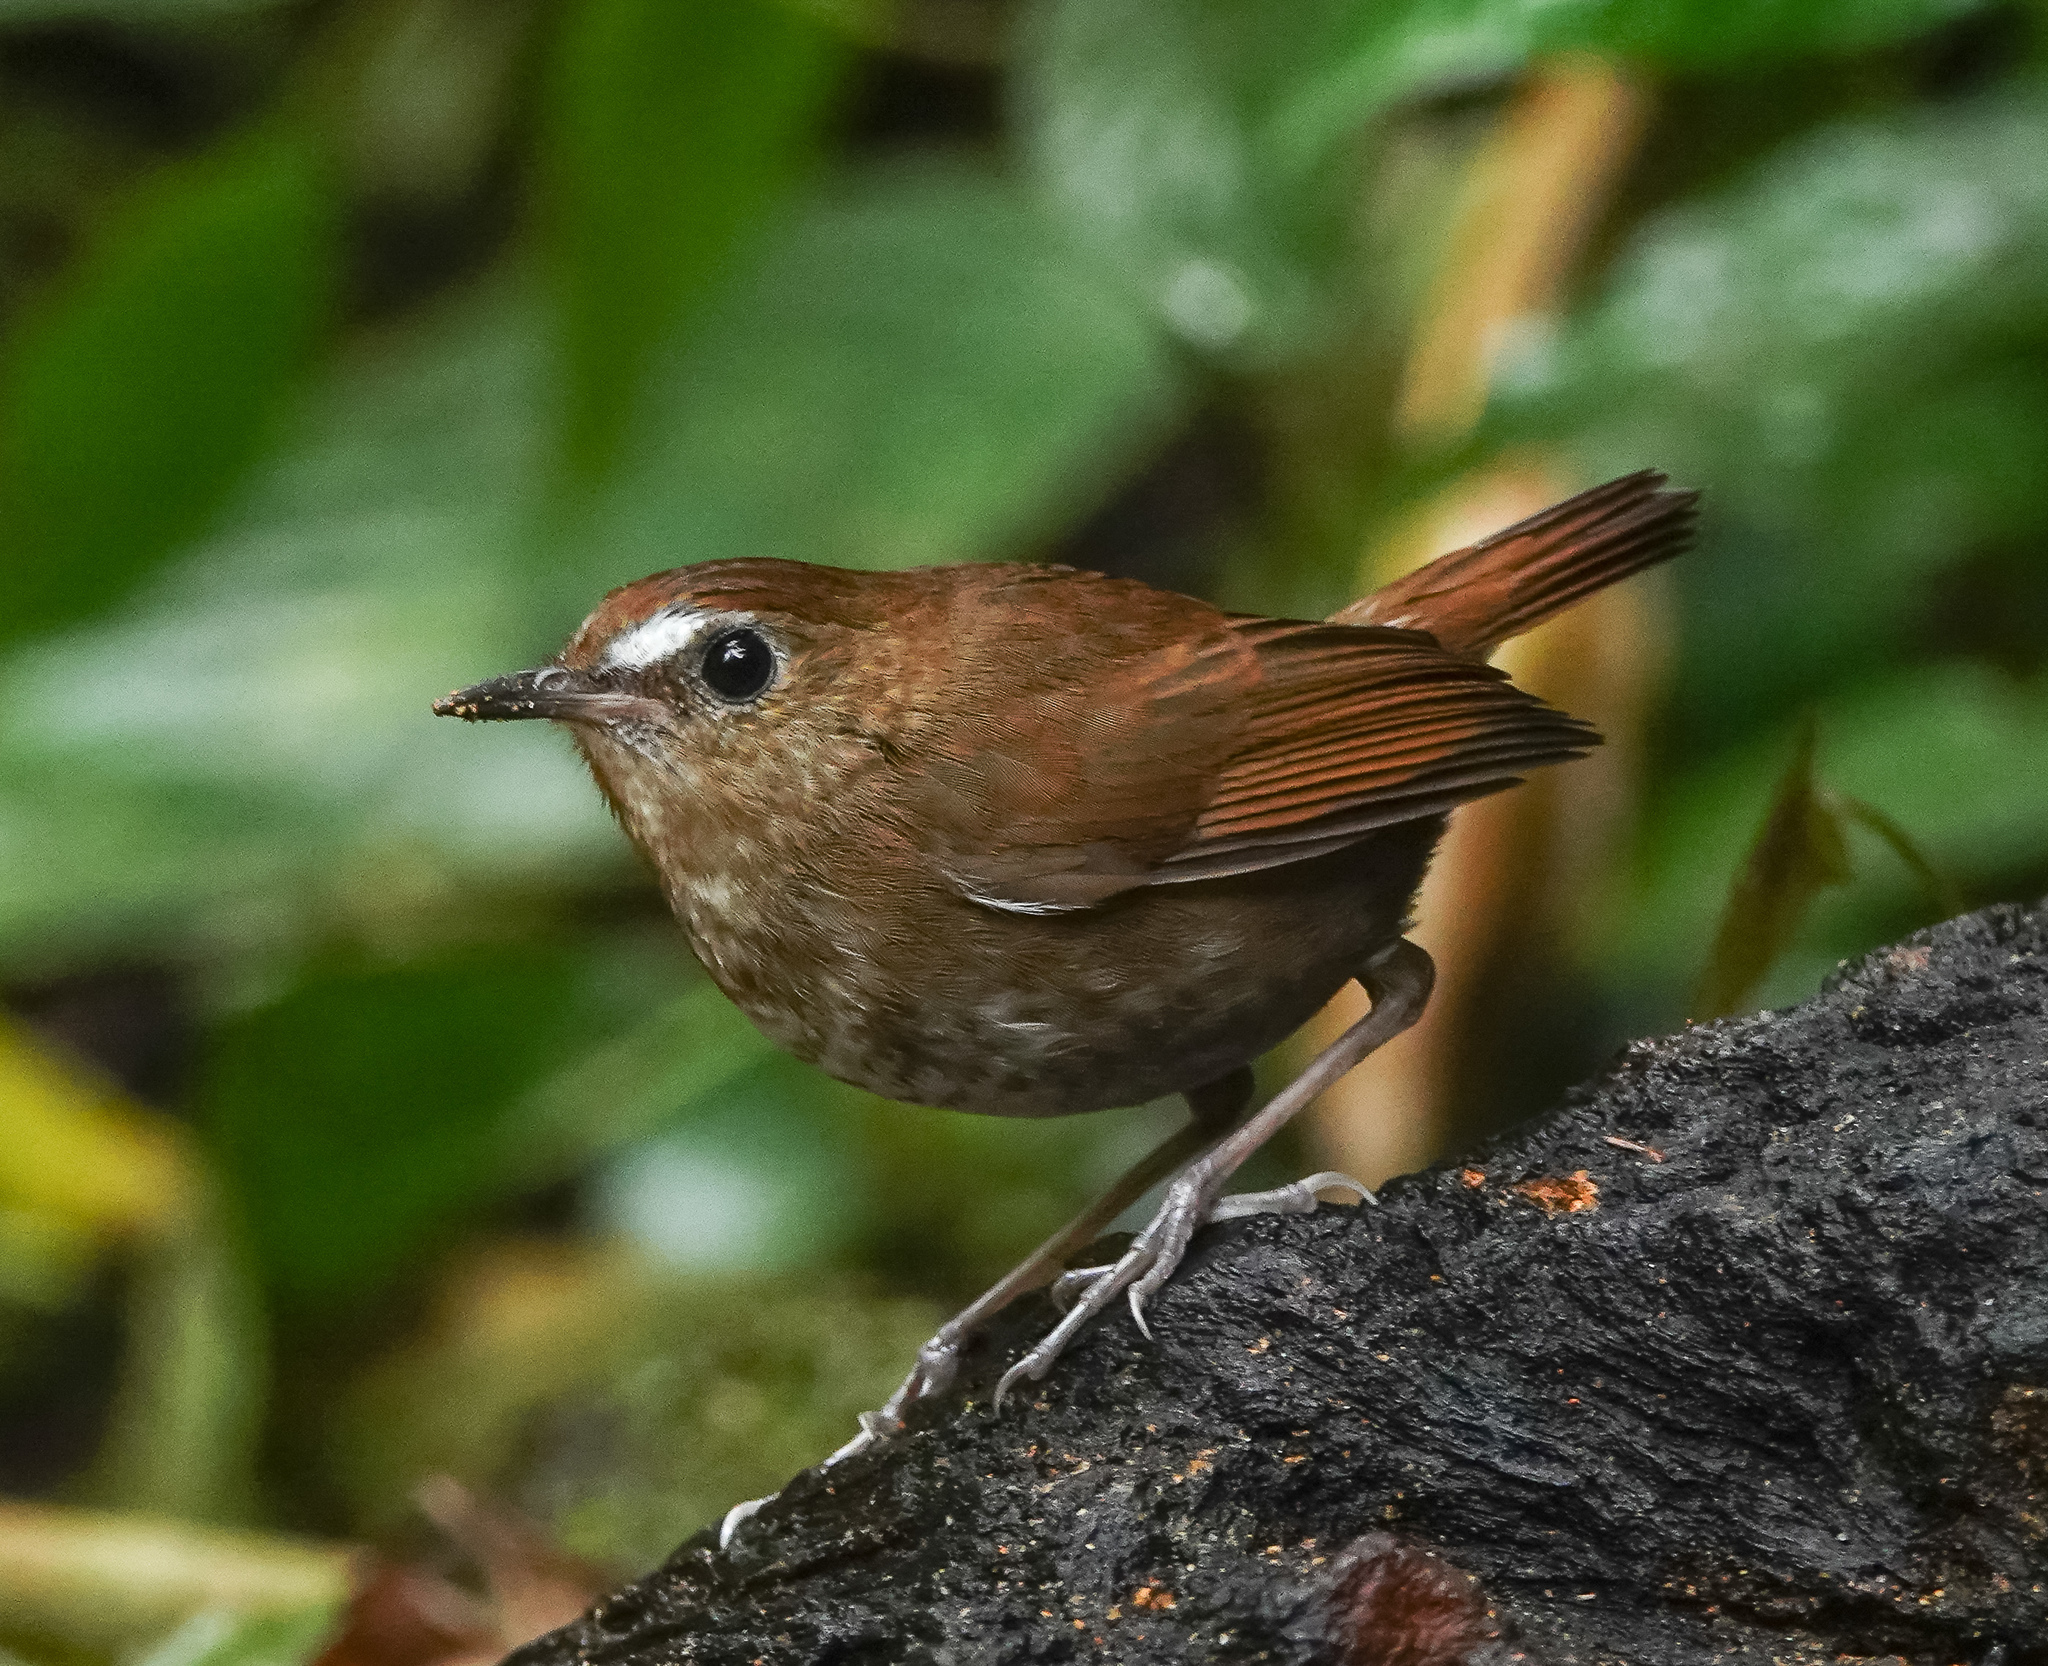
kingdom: Animalia
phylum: Chordata
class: Aves
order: Passeriformes
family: Muscicapidae
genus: Brachypteryx
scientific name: Brachypteryx leucophris
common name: Lesser shortwing
